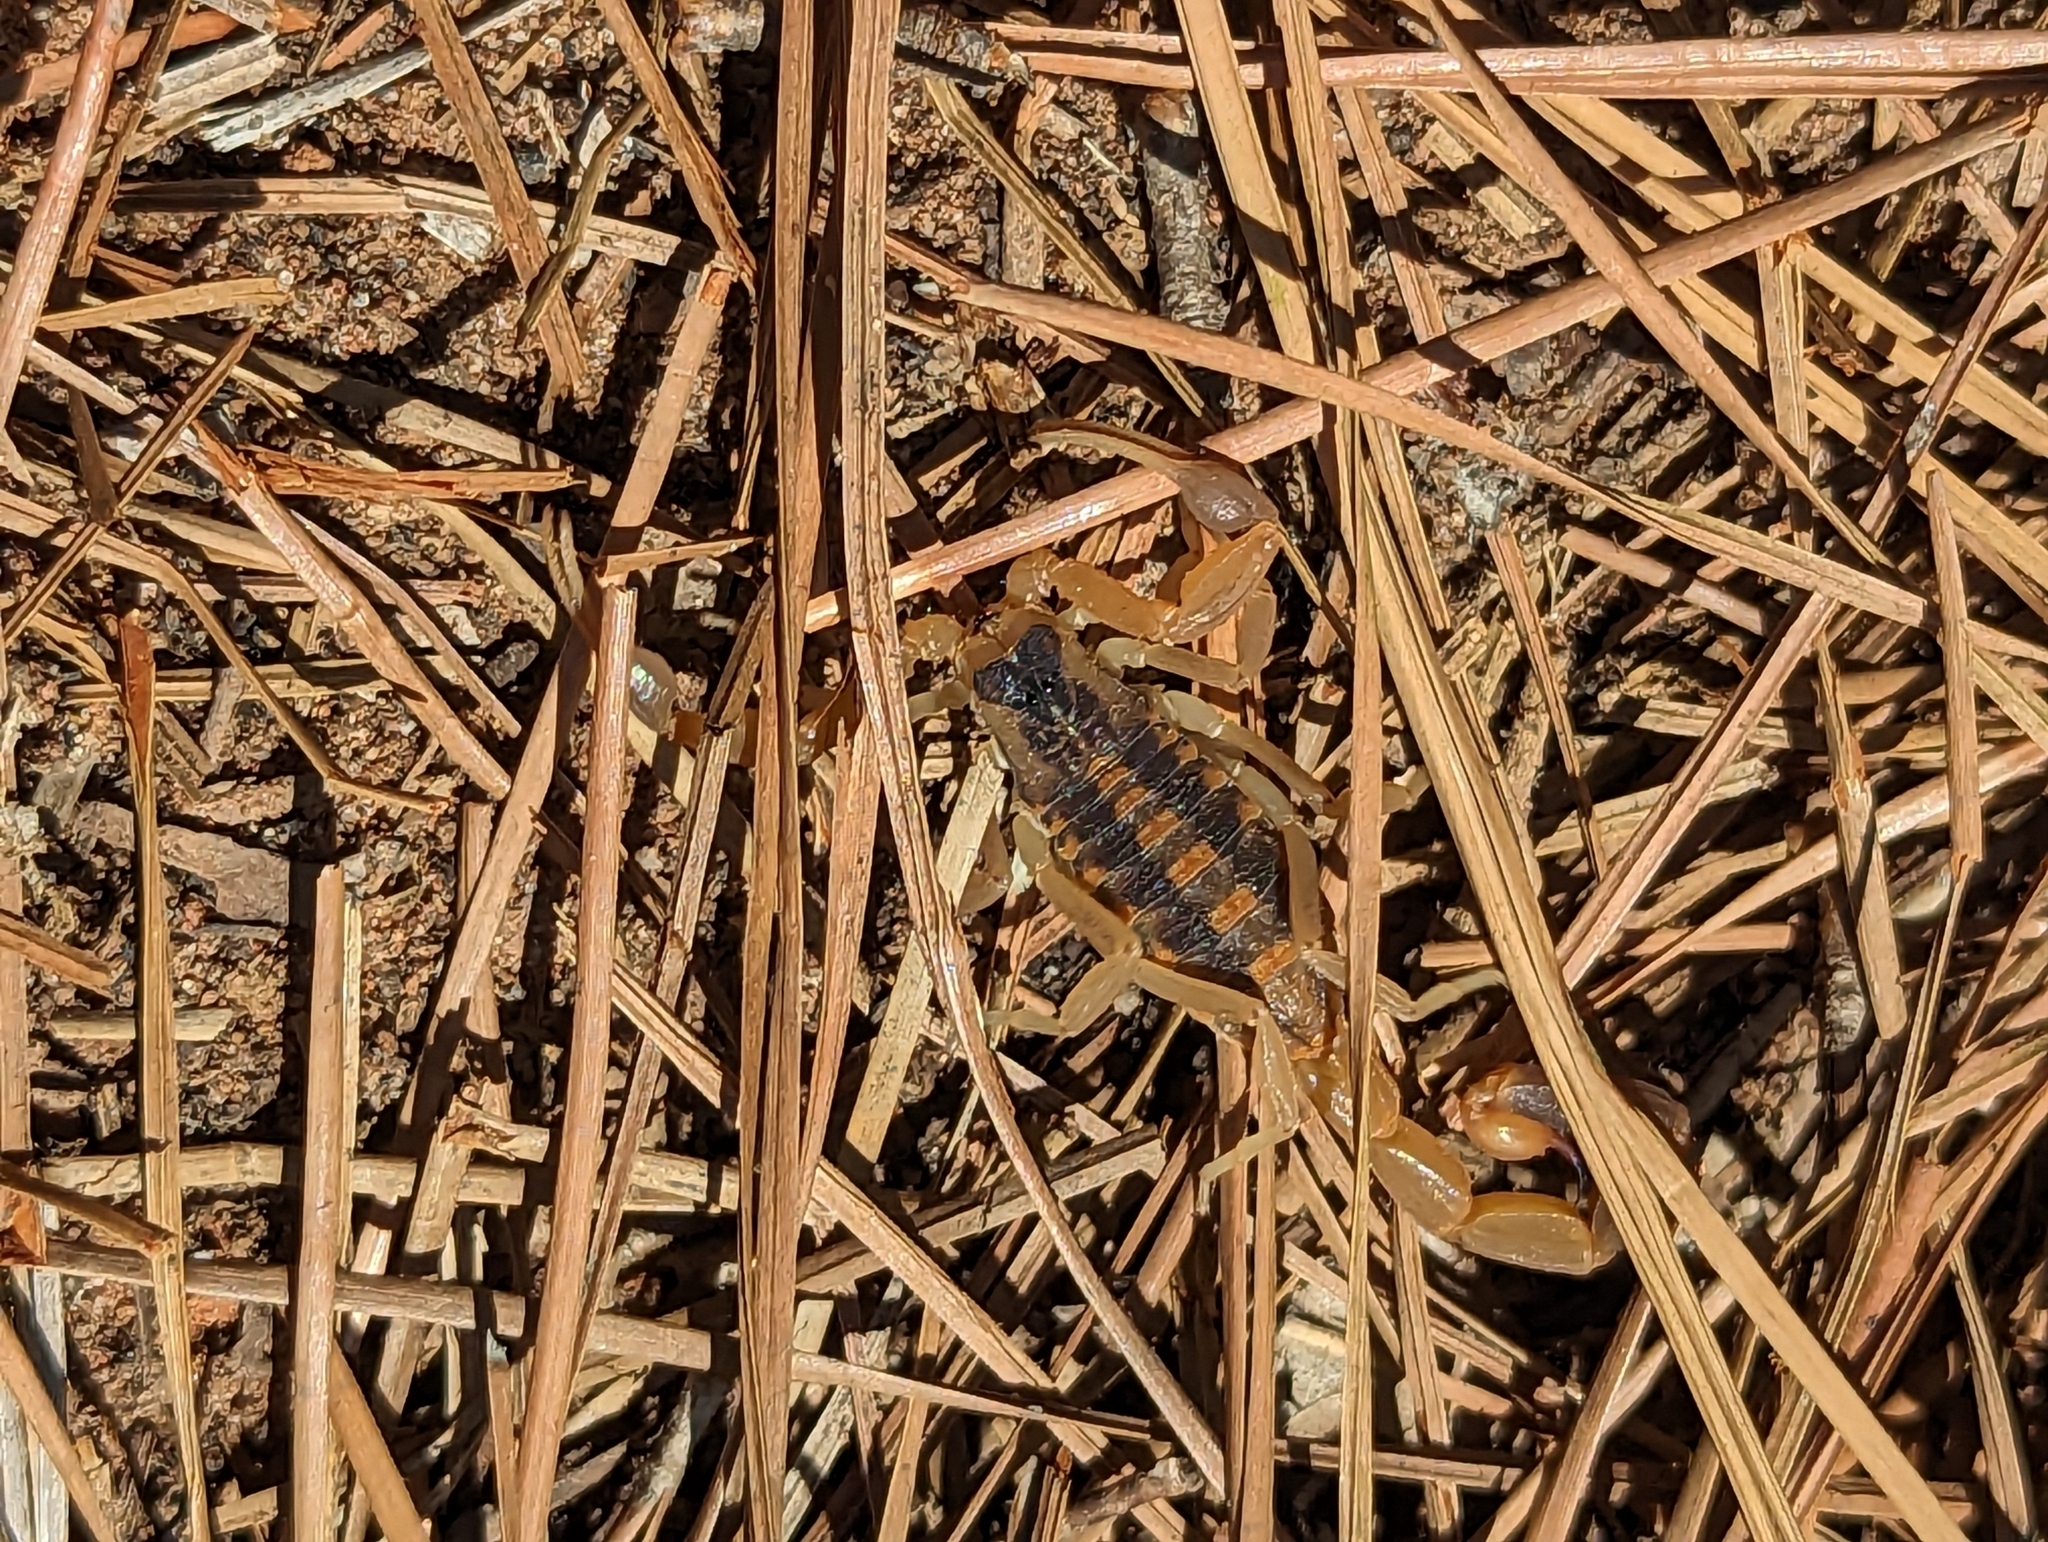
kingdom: Animalia
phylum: Arthropoda
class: Arachnida
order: Scorpiones
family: Buthidae
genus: Centruroides
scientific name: Centruroides vittatus
